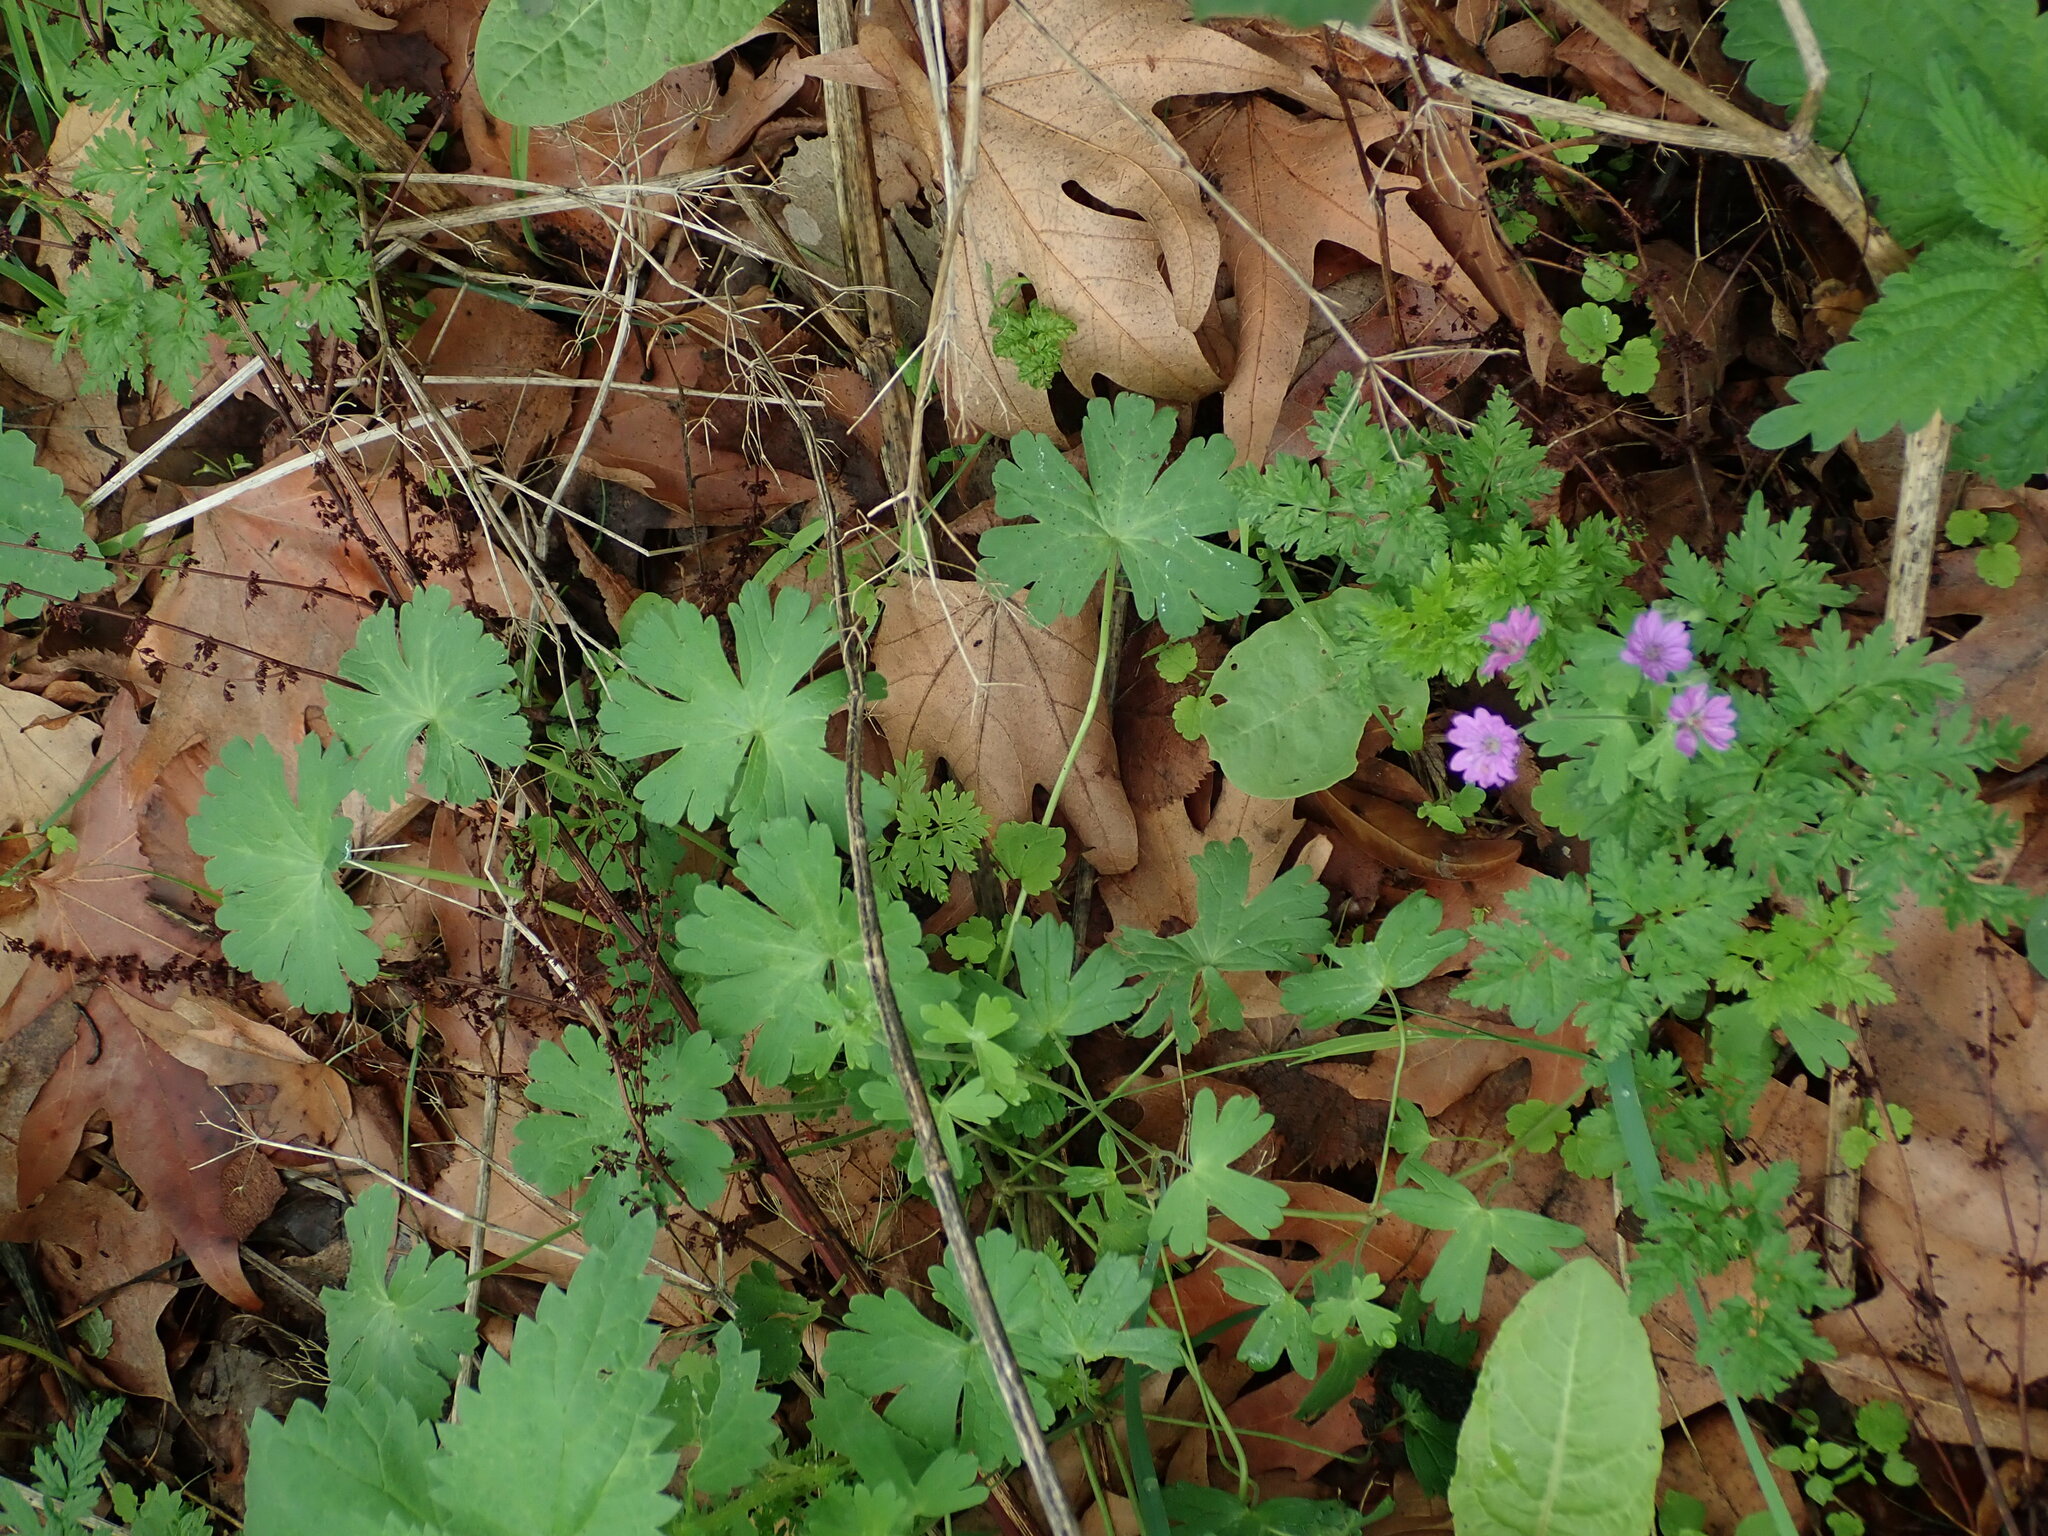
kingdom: Plantae
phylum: Tracheophyta
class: Magnoliopsida
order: Geraniales
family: Geraniaceae
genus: Geranium
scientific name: Geranium pyrenaicum
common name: Hedgerow crane's-bill
